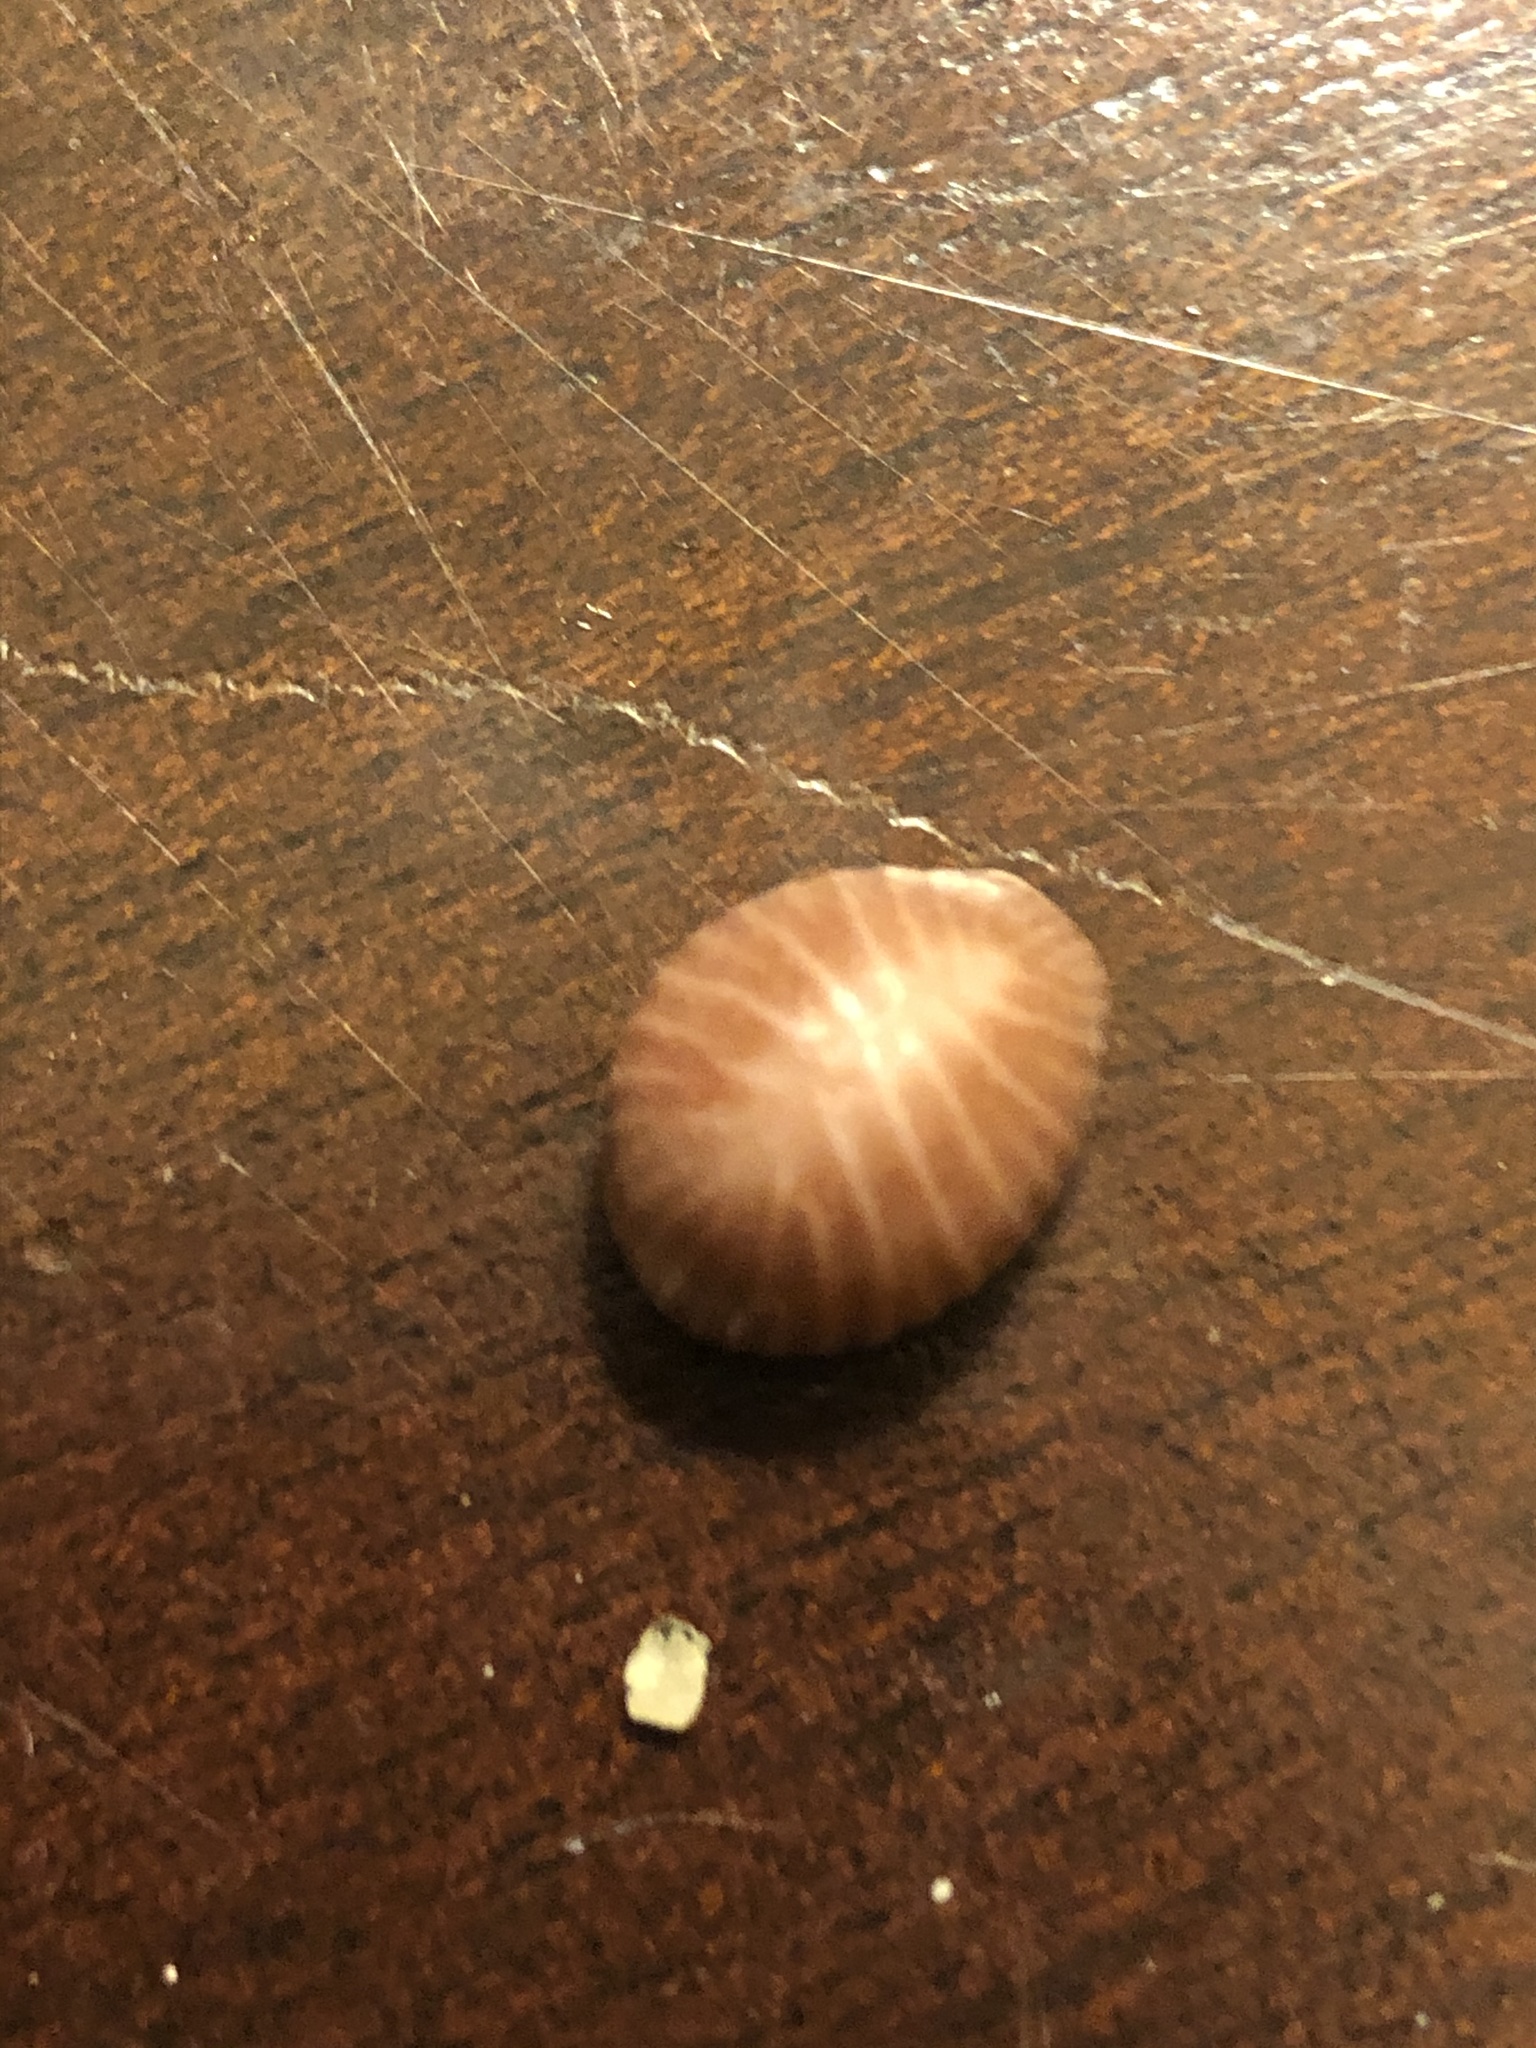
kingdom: Animalia
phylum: Mollusca
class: Gastropoda
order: Littorinimorpha
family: Triviidae
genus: Pseudopusula
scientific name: Pseudopusula californiana
